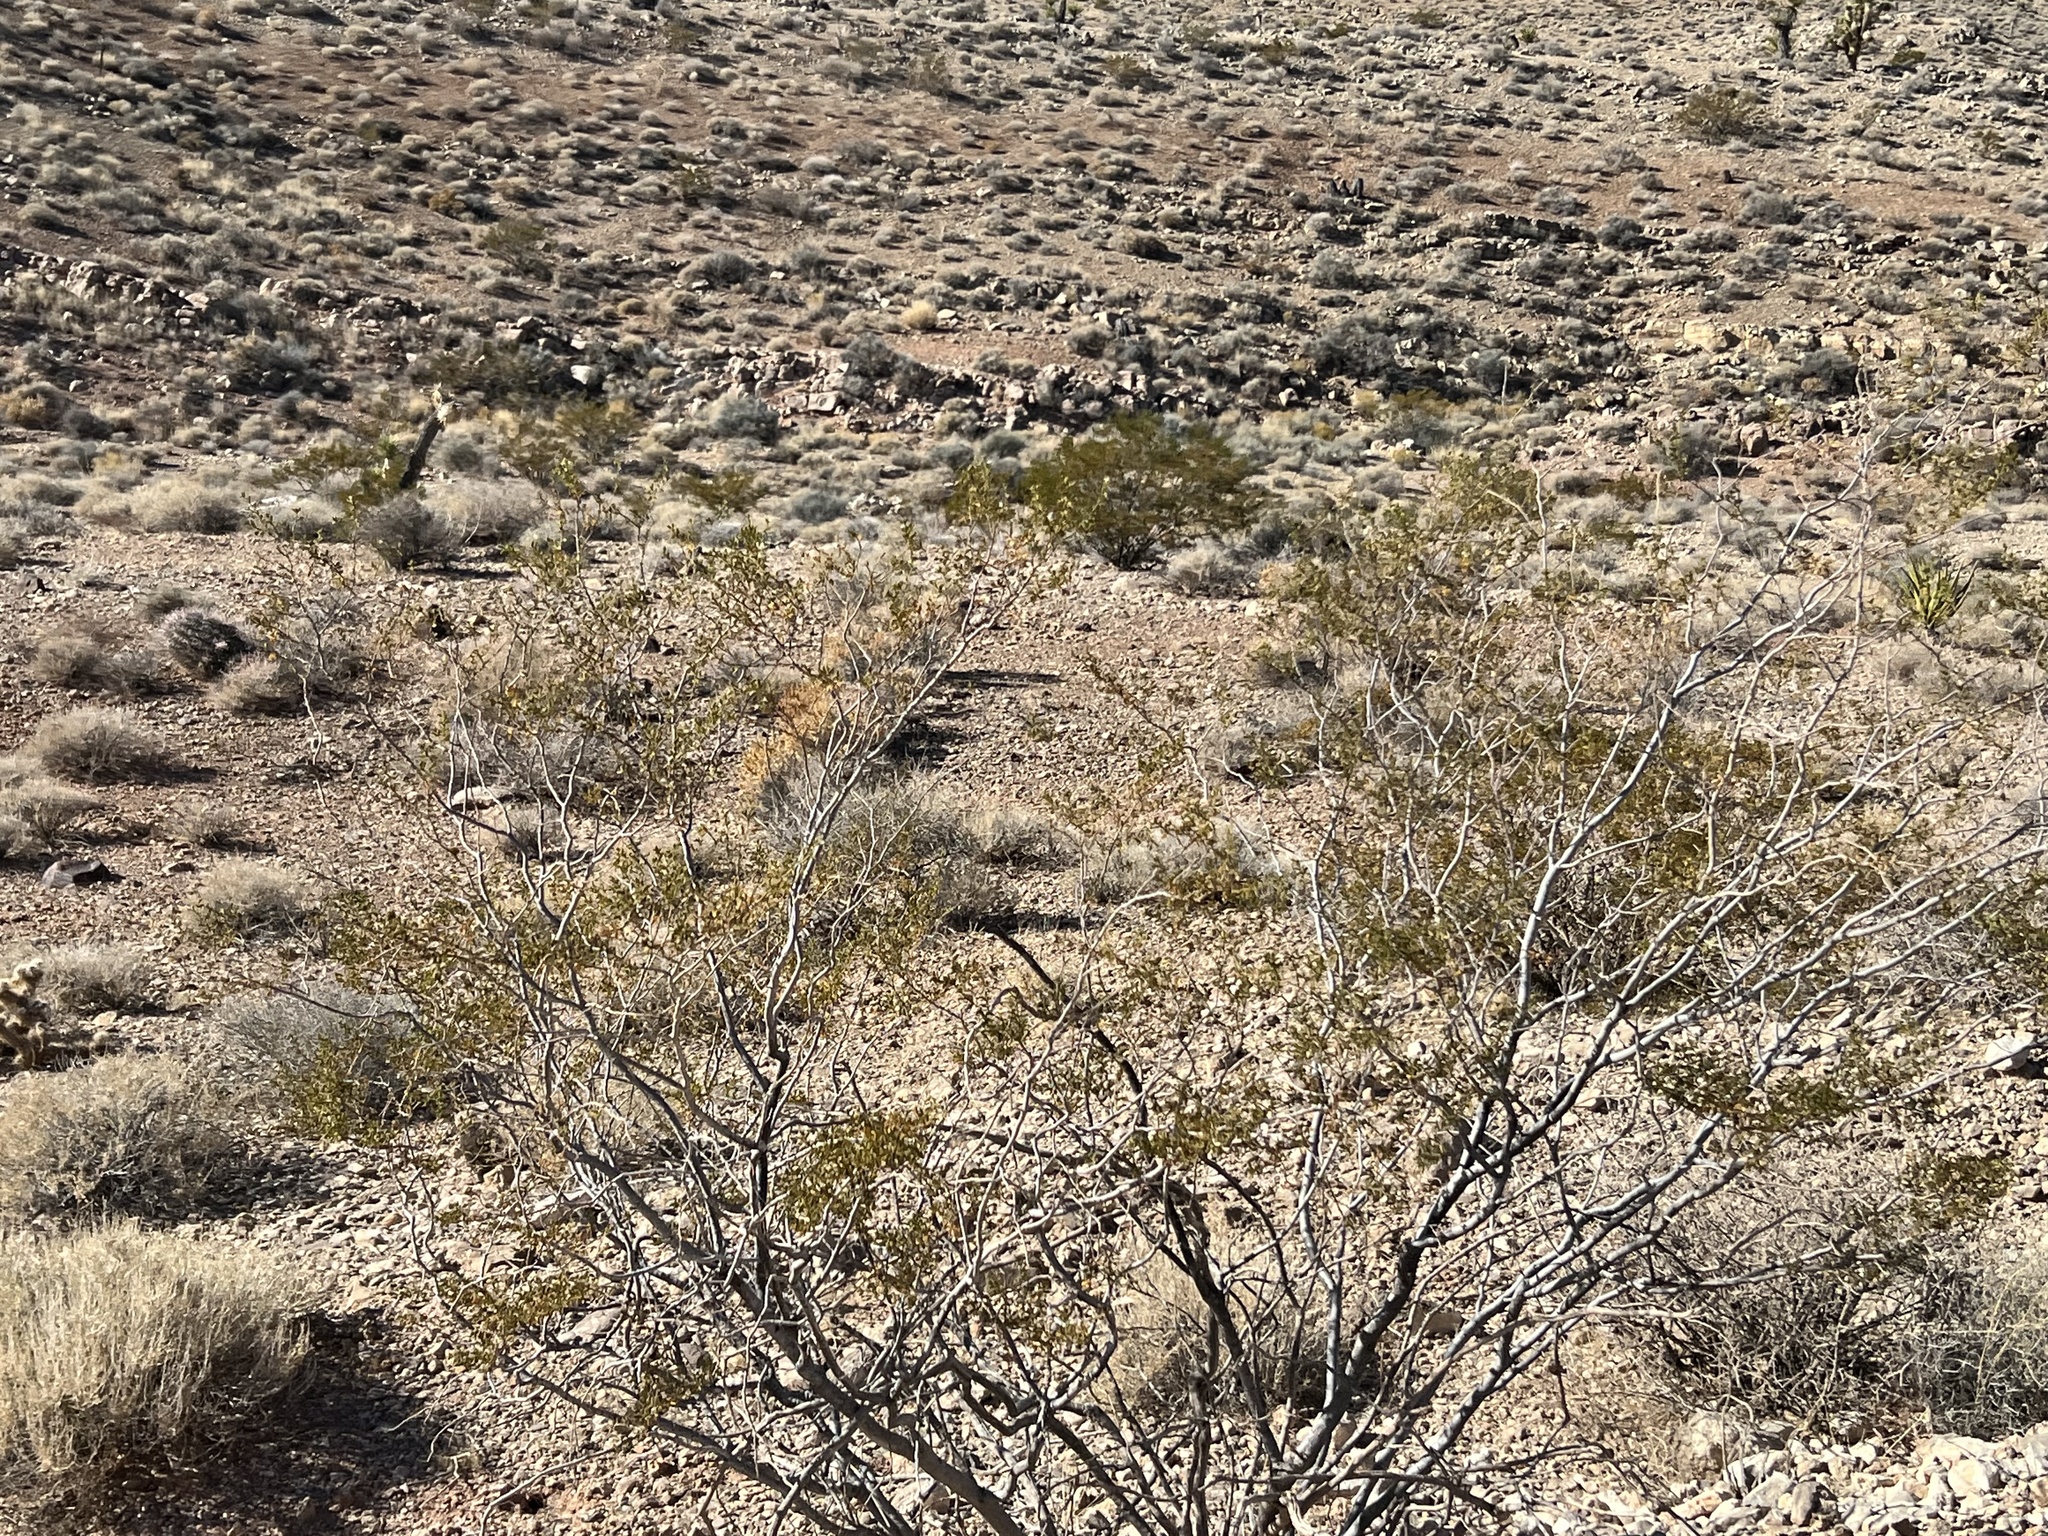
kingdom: Plantae
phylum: Tracheophyta
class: Magnoliopsida
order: Zygophyllales
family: Zygophyllaceae
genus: Larrea
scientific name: Larrea tridentata
